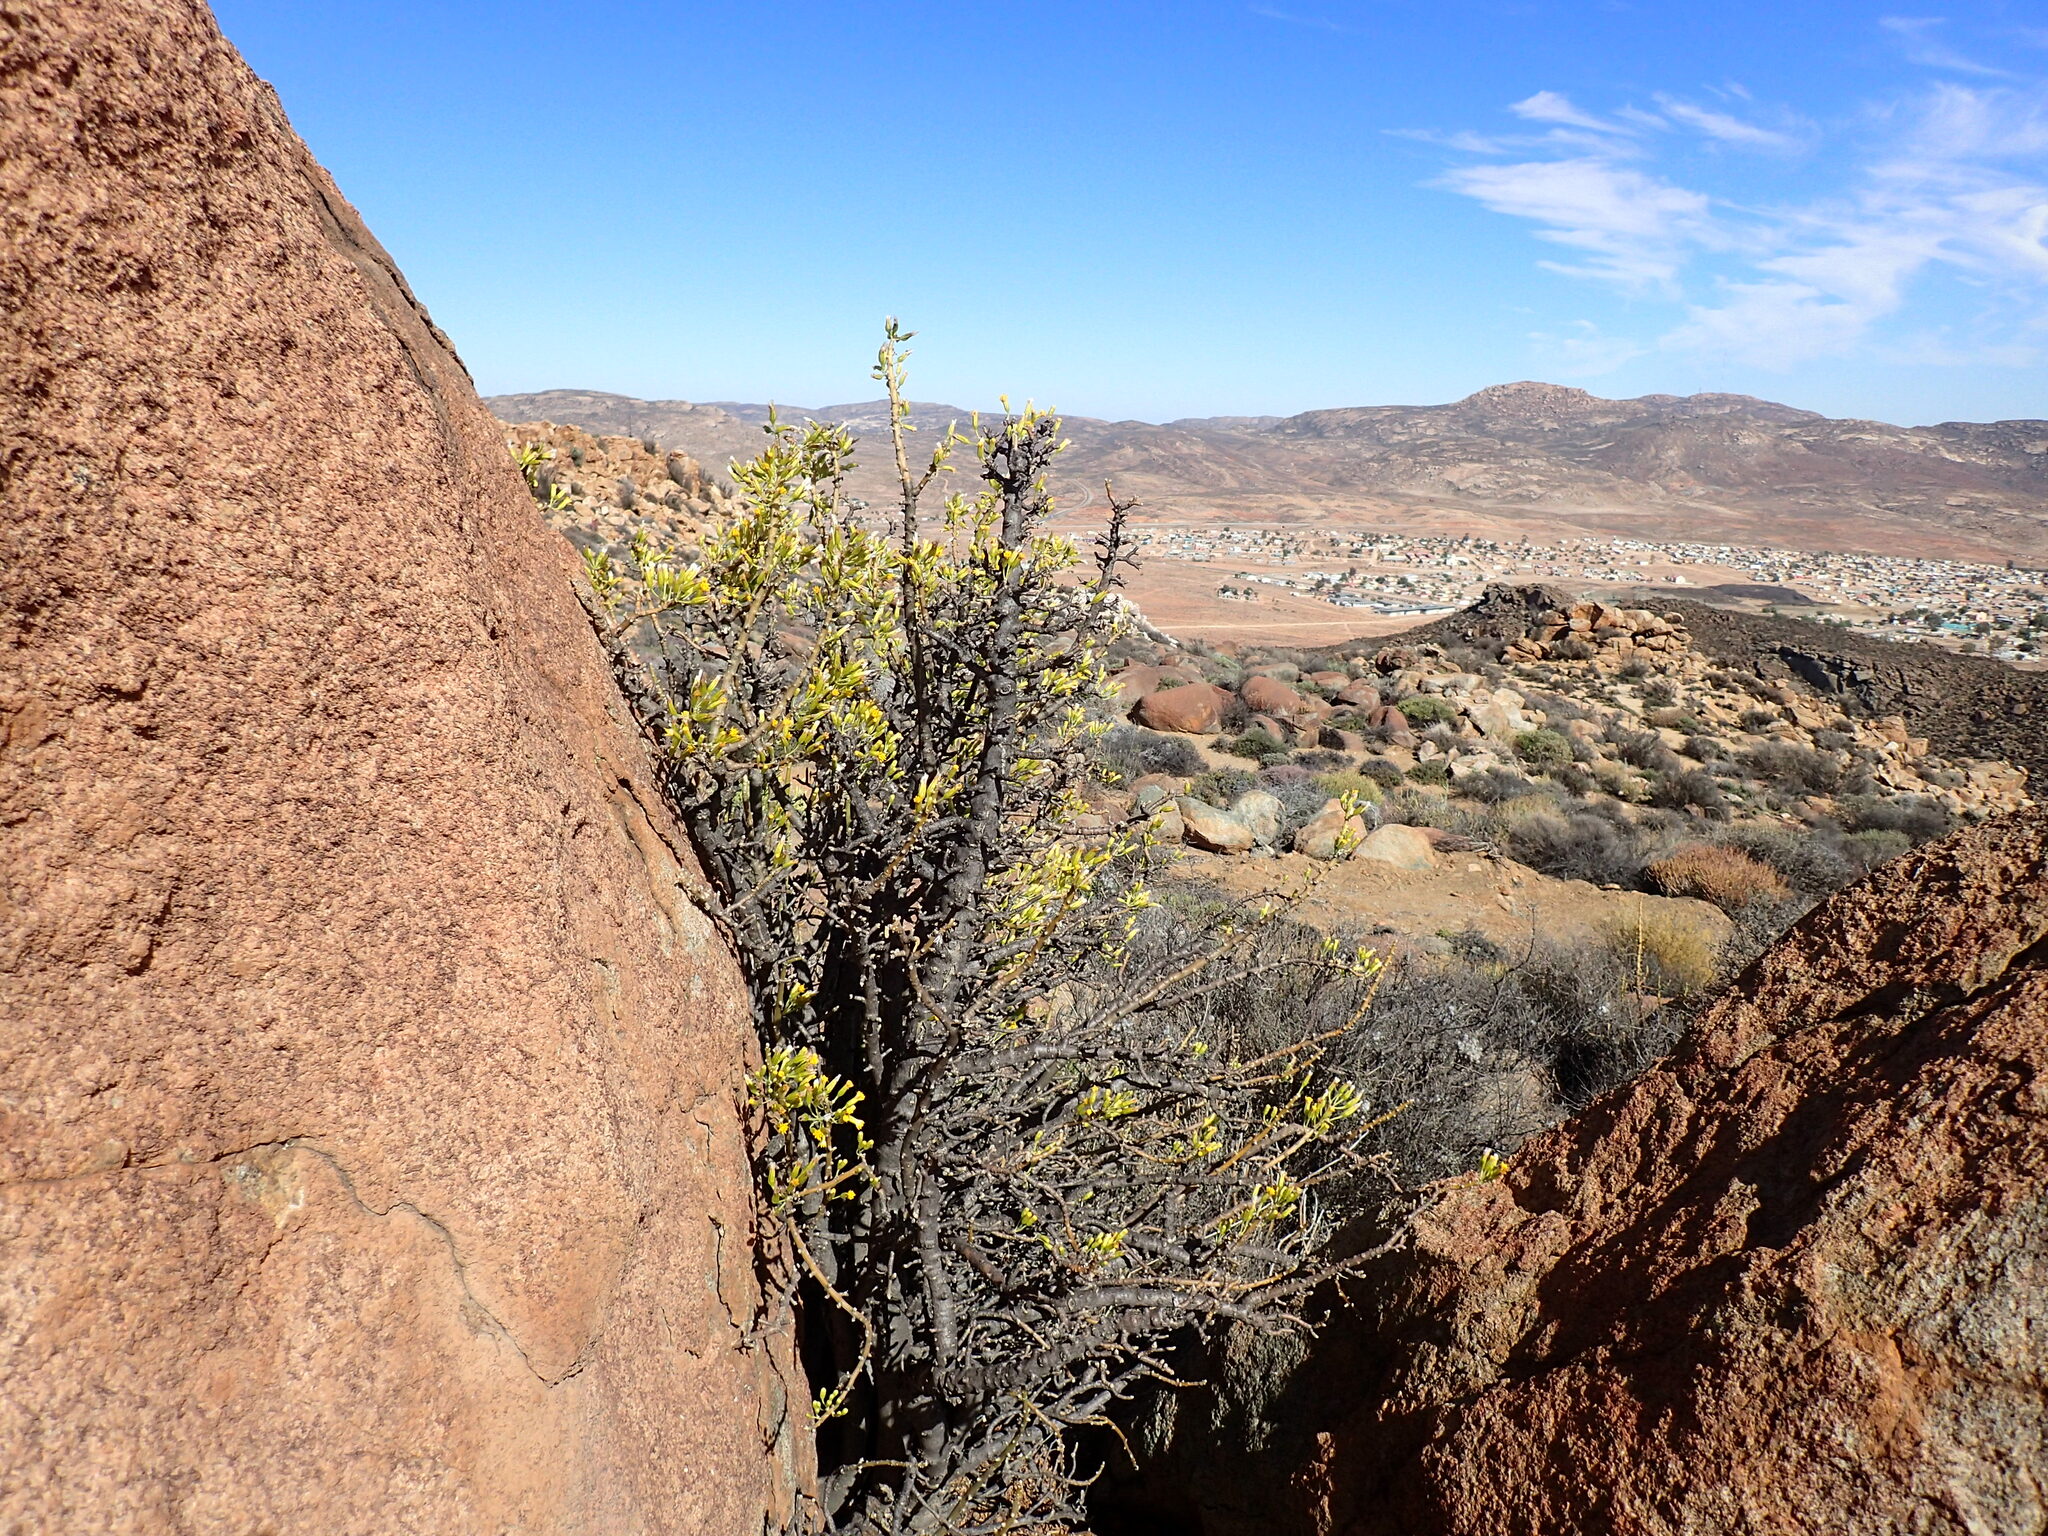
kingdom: Plantae
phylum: Tracheophyta
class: Magnoliopsida
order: Asterales
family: Asteraceae
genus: Othonna
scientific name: Othonna cerarioides
